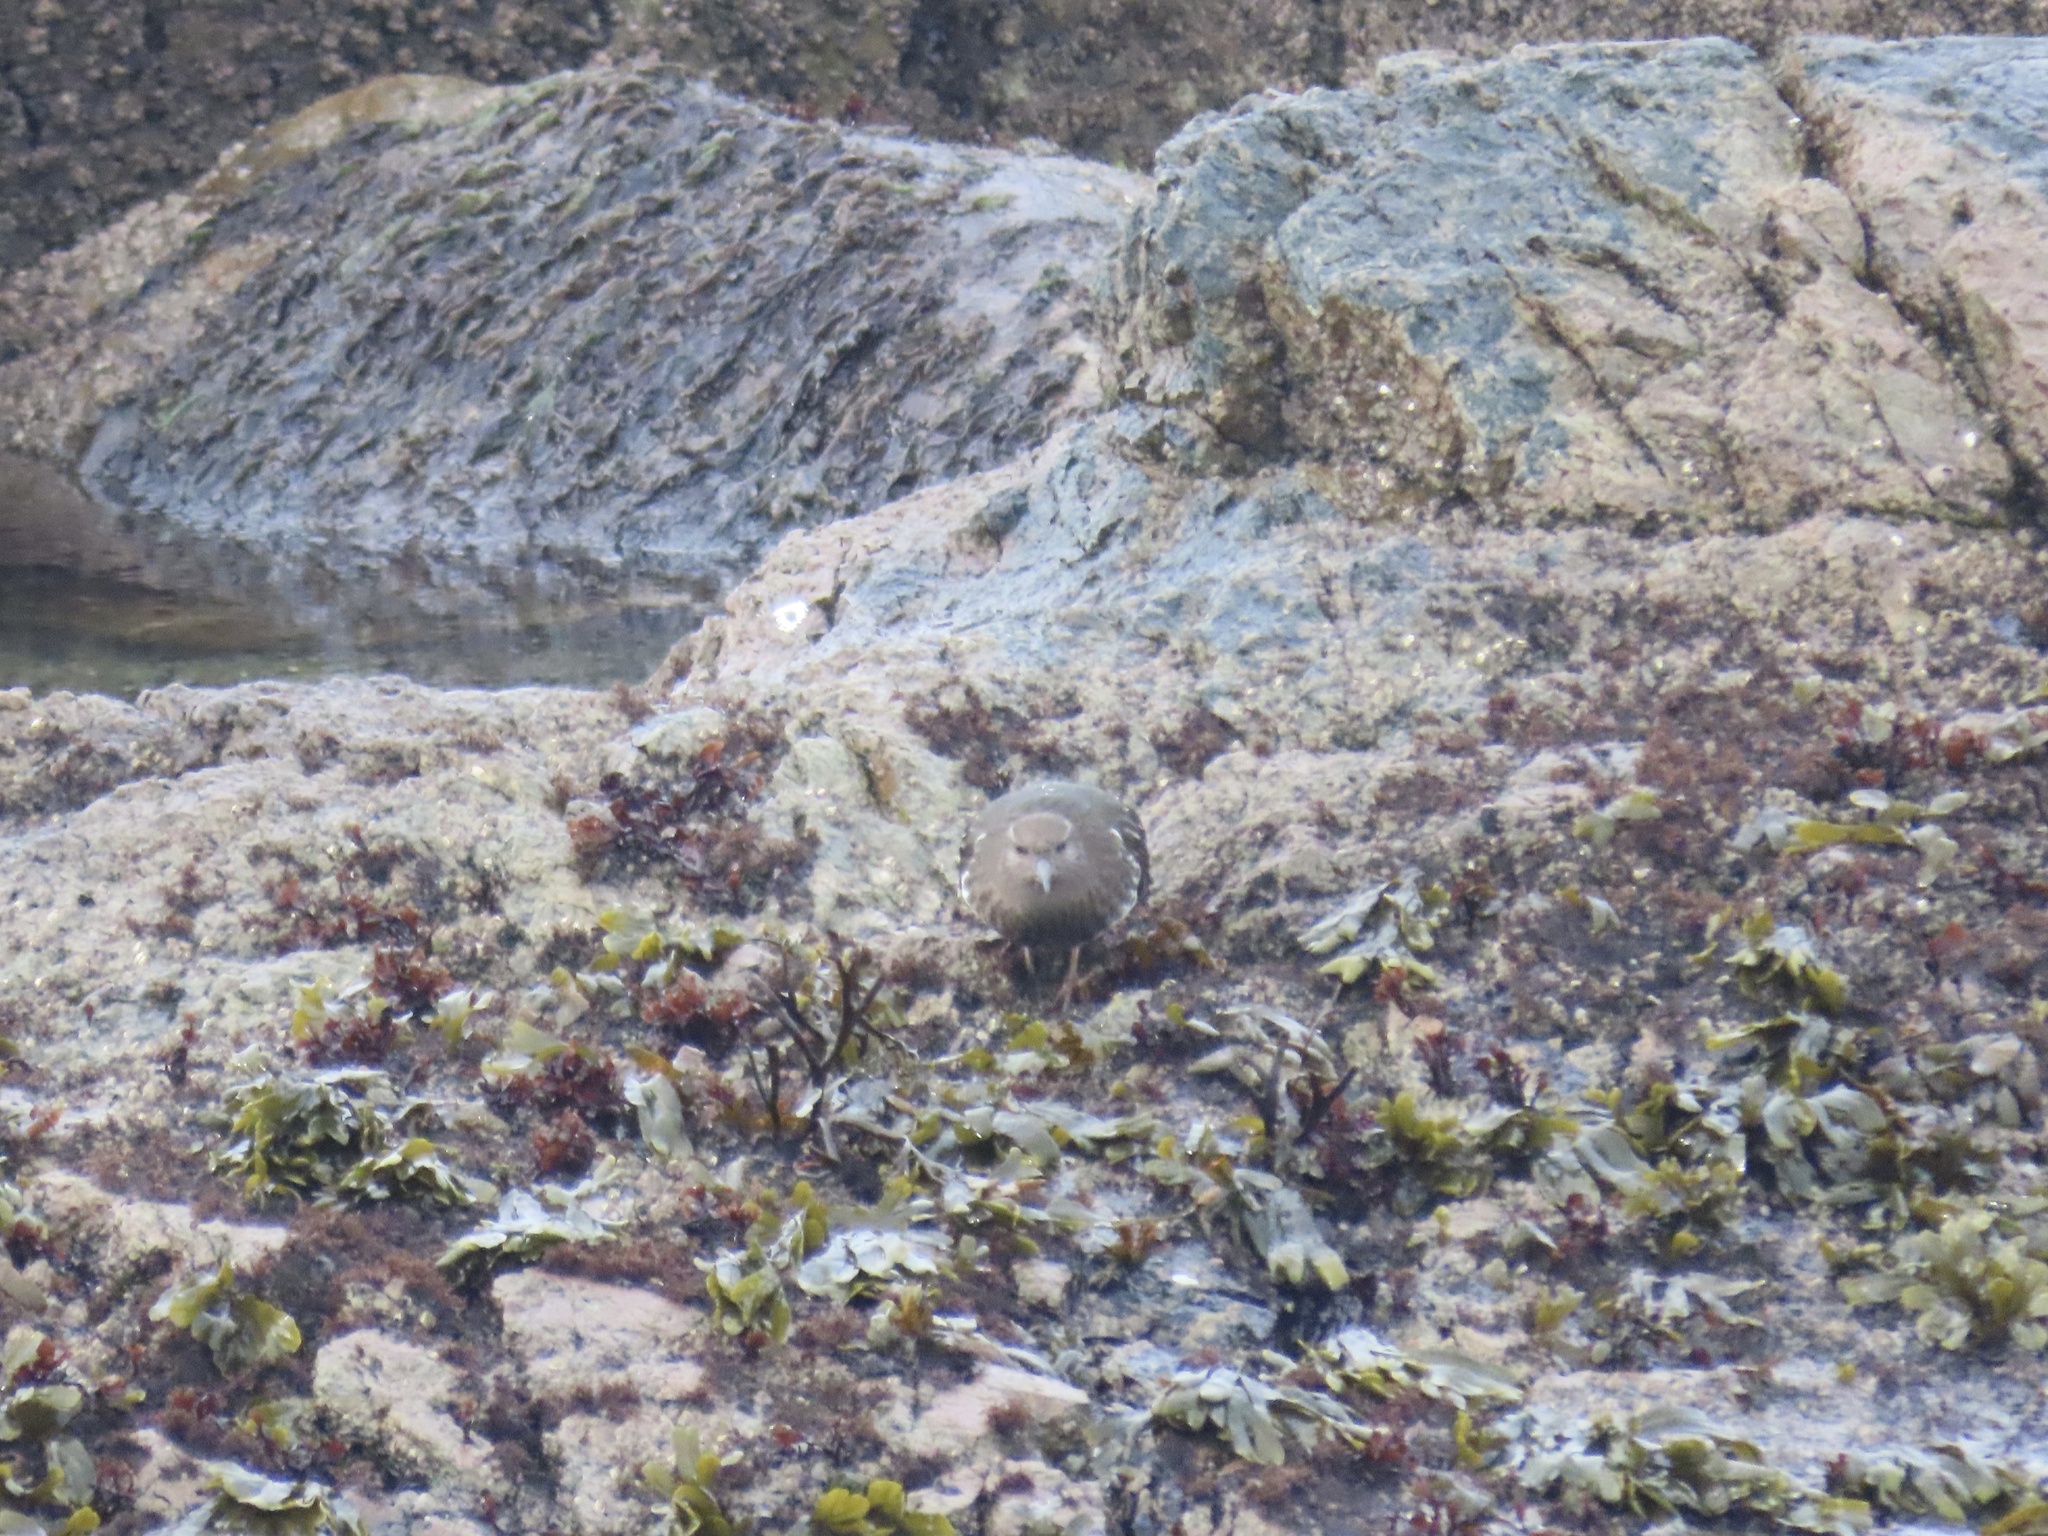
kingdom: Animalia
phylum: Chordata
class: Aves
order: Charadriiformes
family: Scolopacidae
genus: Arenaria
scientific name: Arenaria melanocephala
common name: Black turnstone
